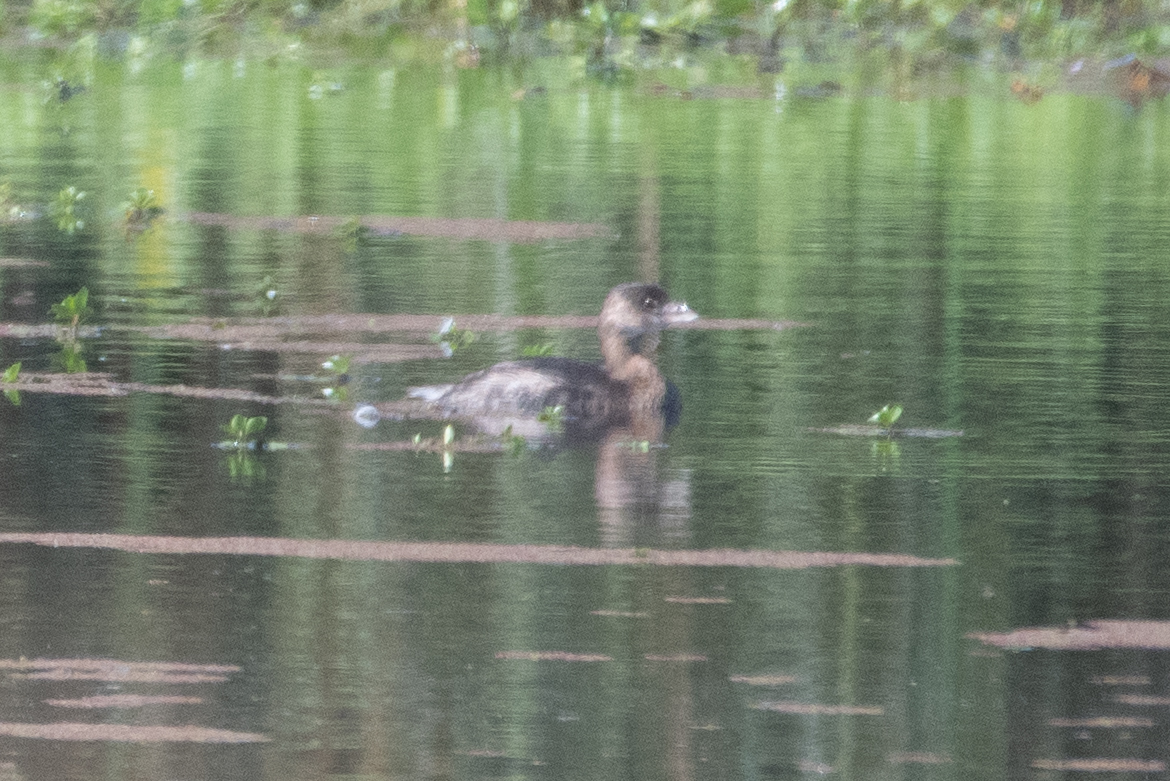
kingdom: Animalia
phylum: Chordata
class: Aves
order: Podicipediformes
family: Podicipedidae
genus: Podilymbus
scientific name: Podilymbus podiceps
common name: Pied-billed grebe
